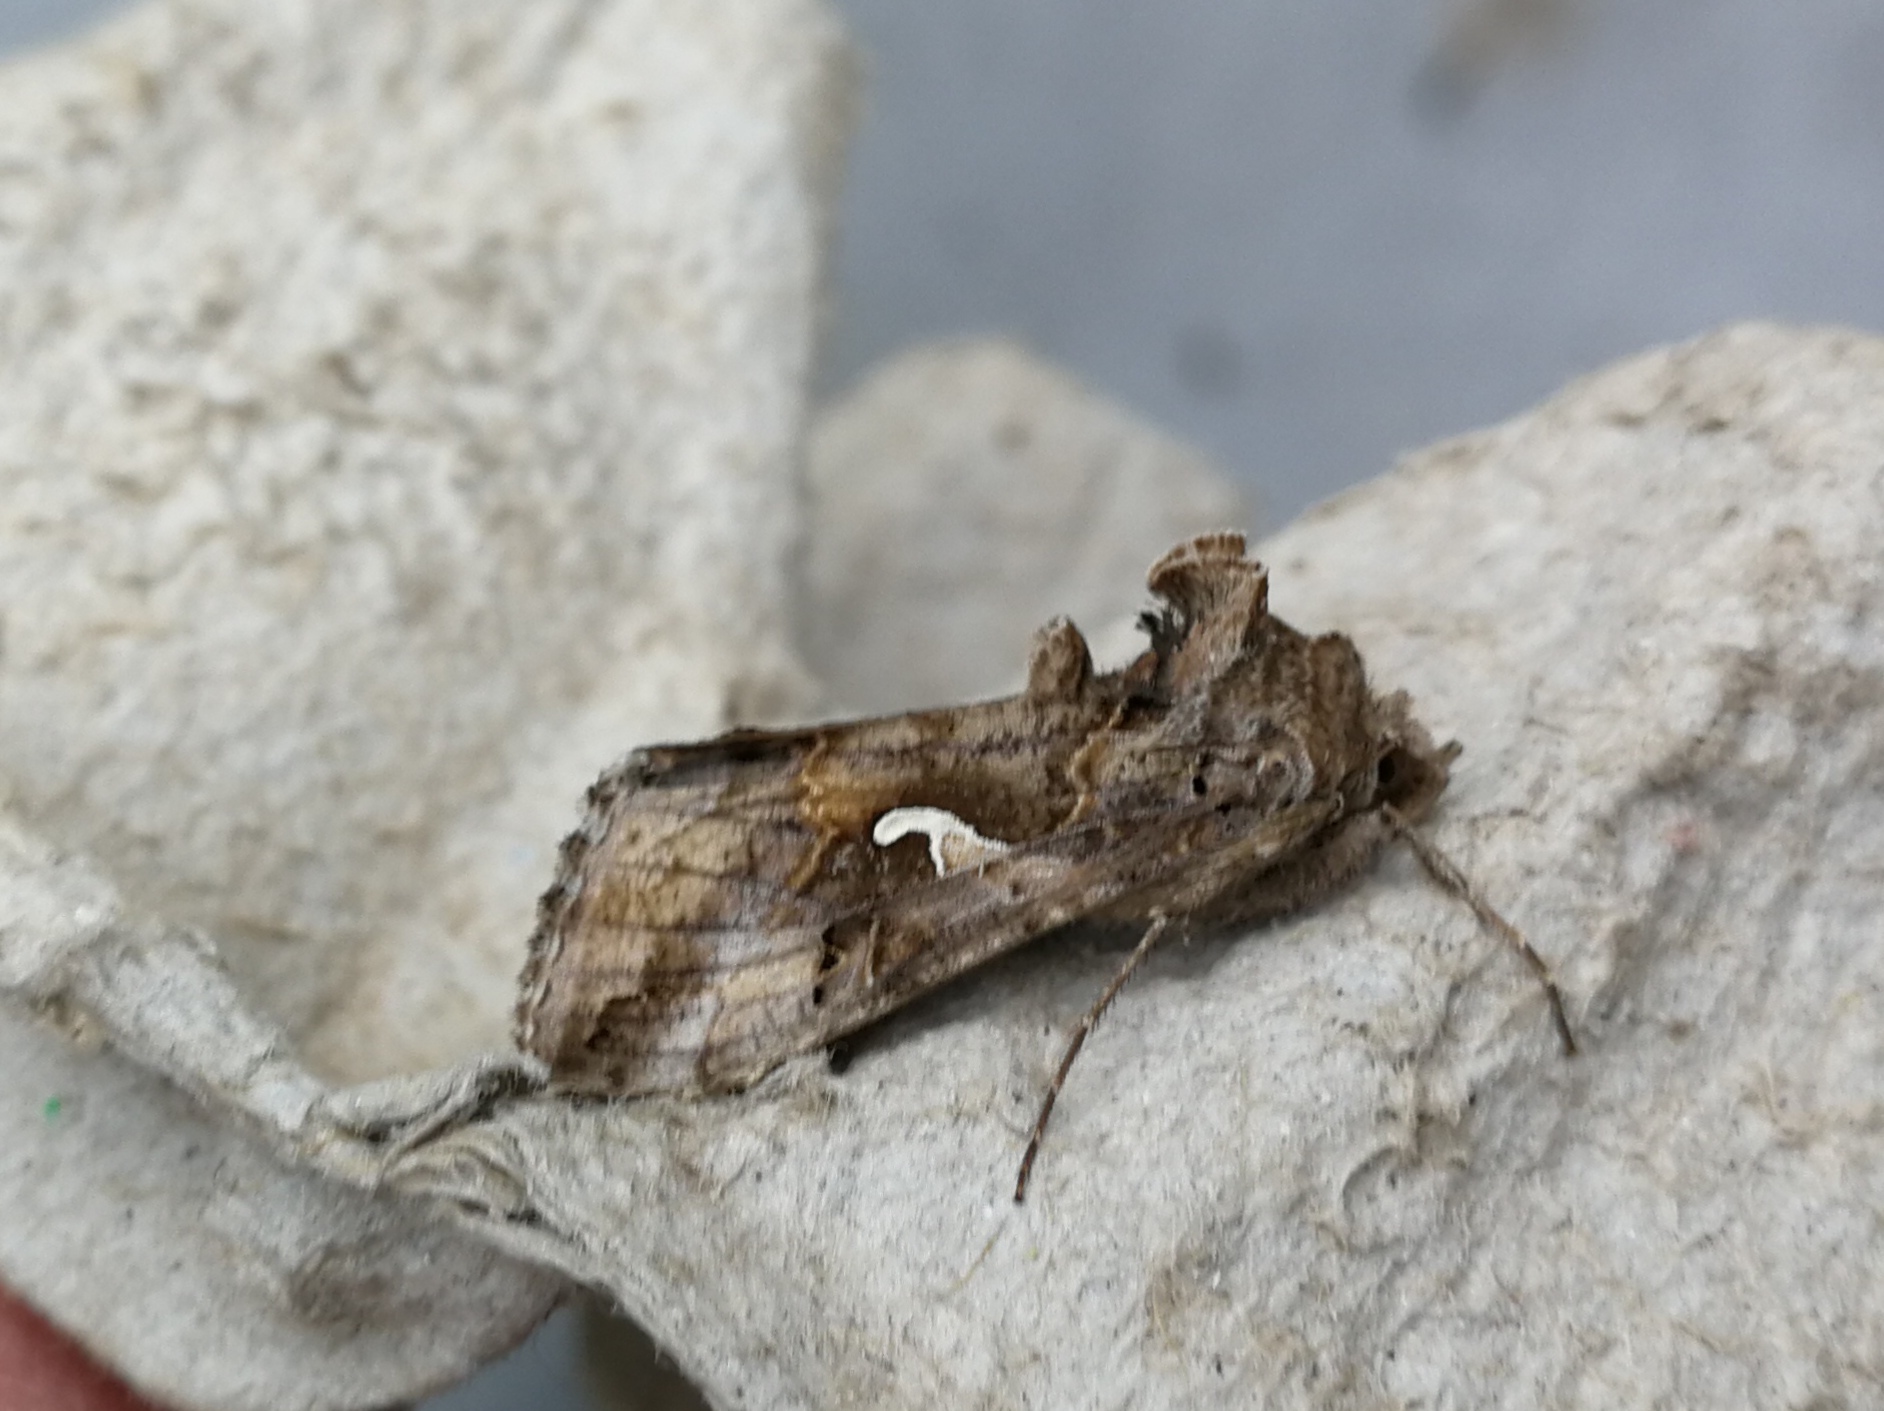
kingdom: Animalia
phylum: Arthropoda
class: Insecta
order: Lepidoptera
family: Noctuidae
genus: Autographa
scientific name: Autographa gamma
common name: Silver y
